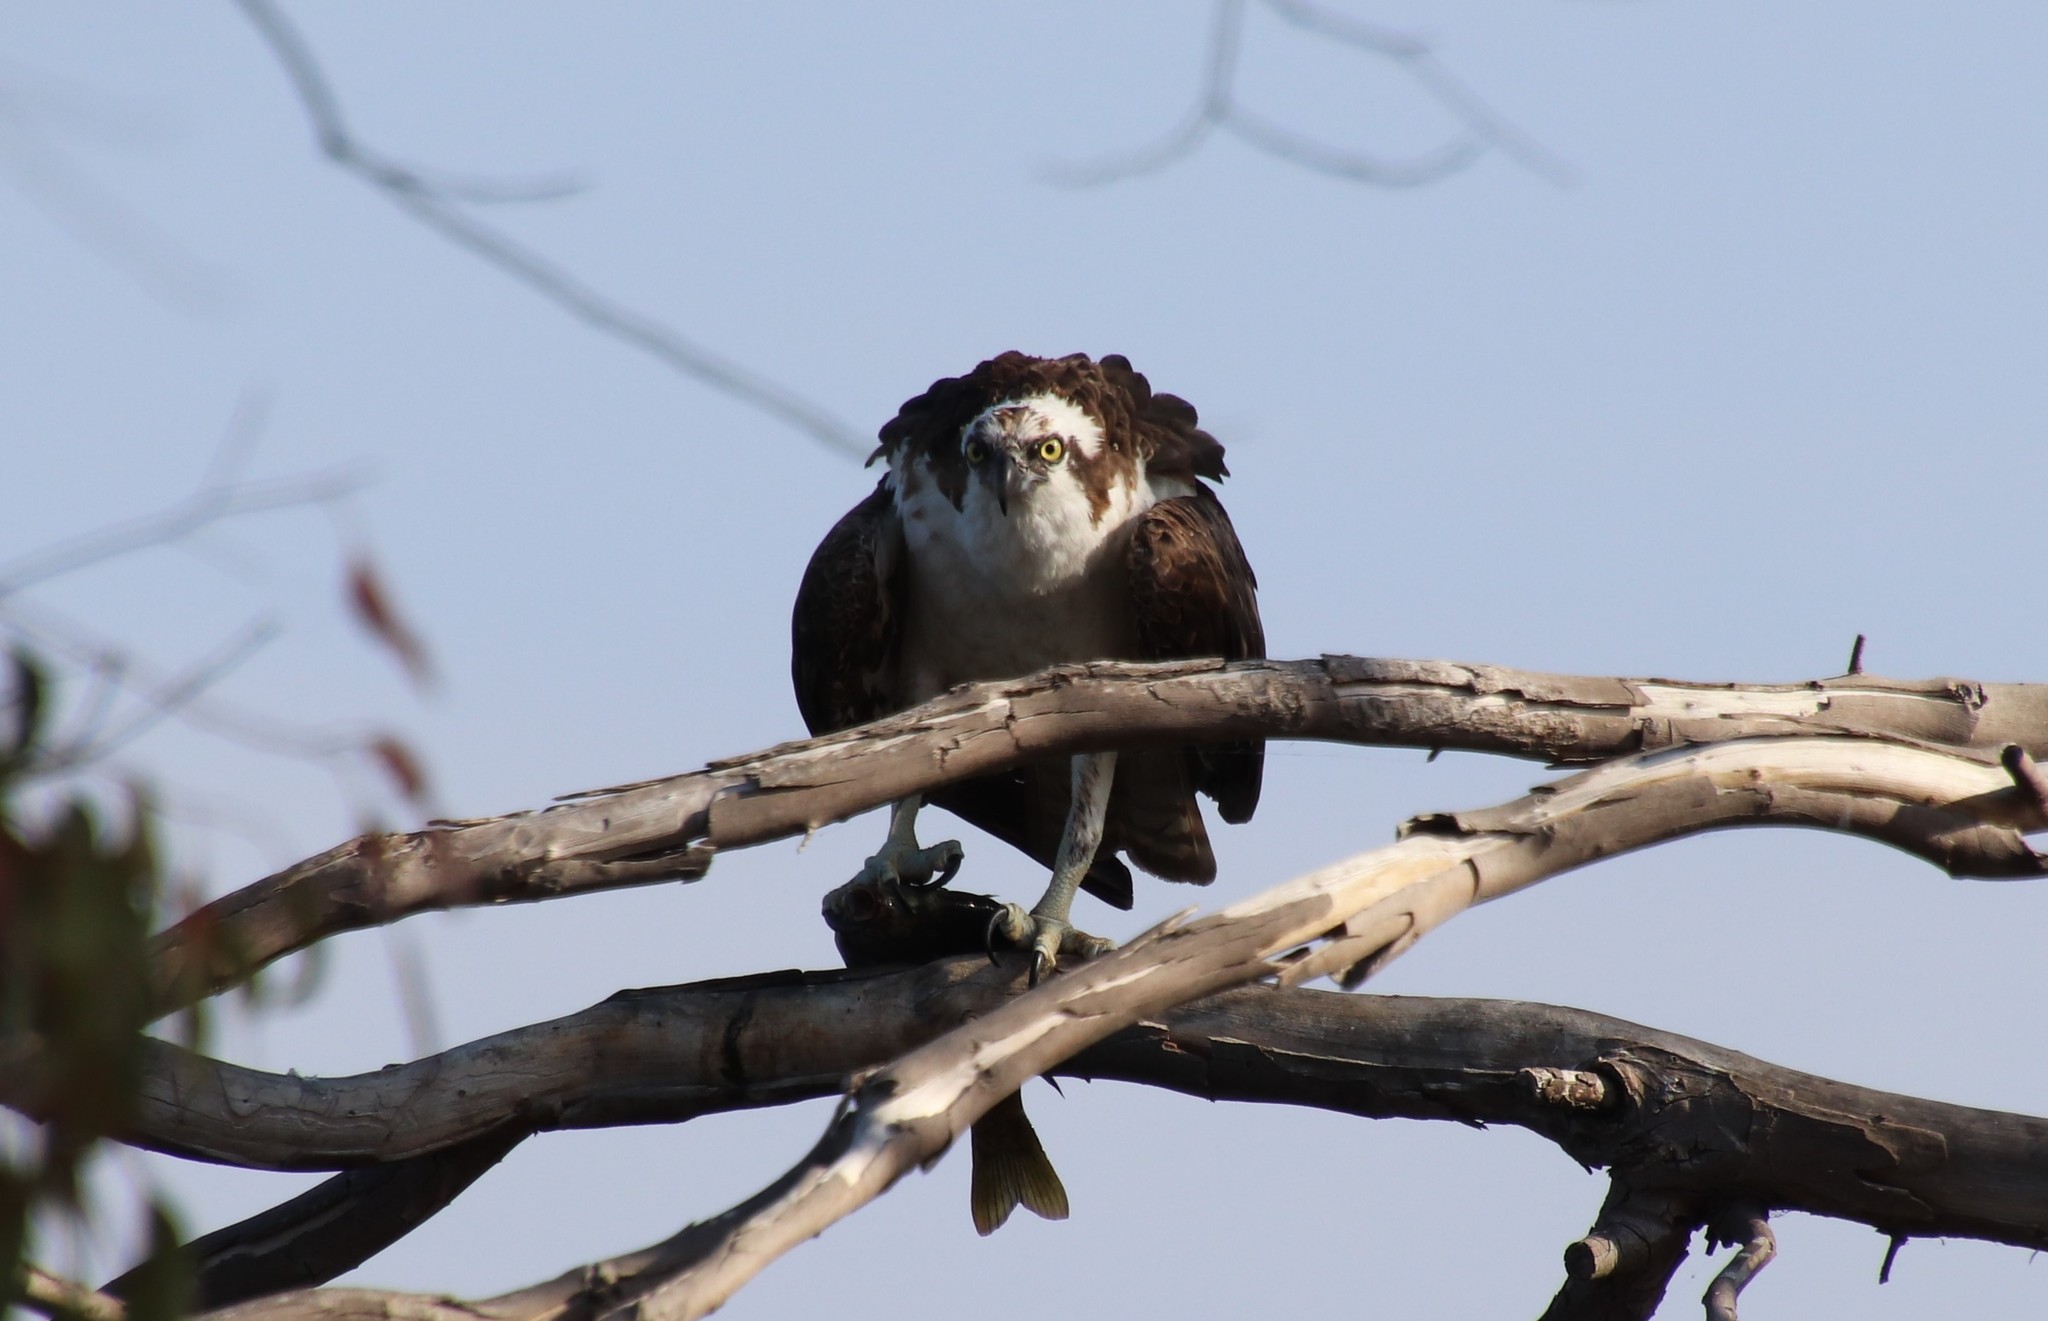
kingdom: Animalia
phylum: Chordata
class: Aves
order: Accipitriformes
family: Pandionidae
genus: Pandion
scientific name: Pandion haliaetus
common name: Osprey
